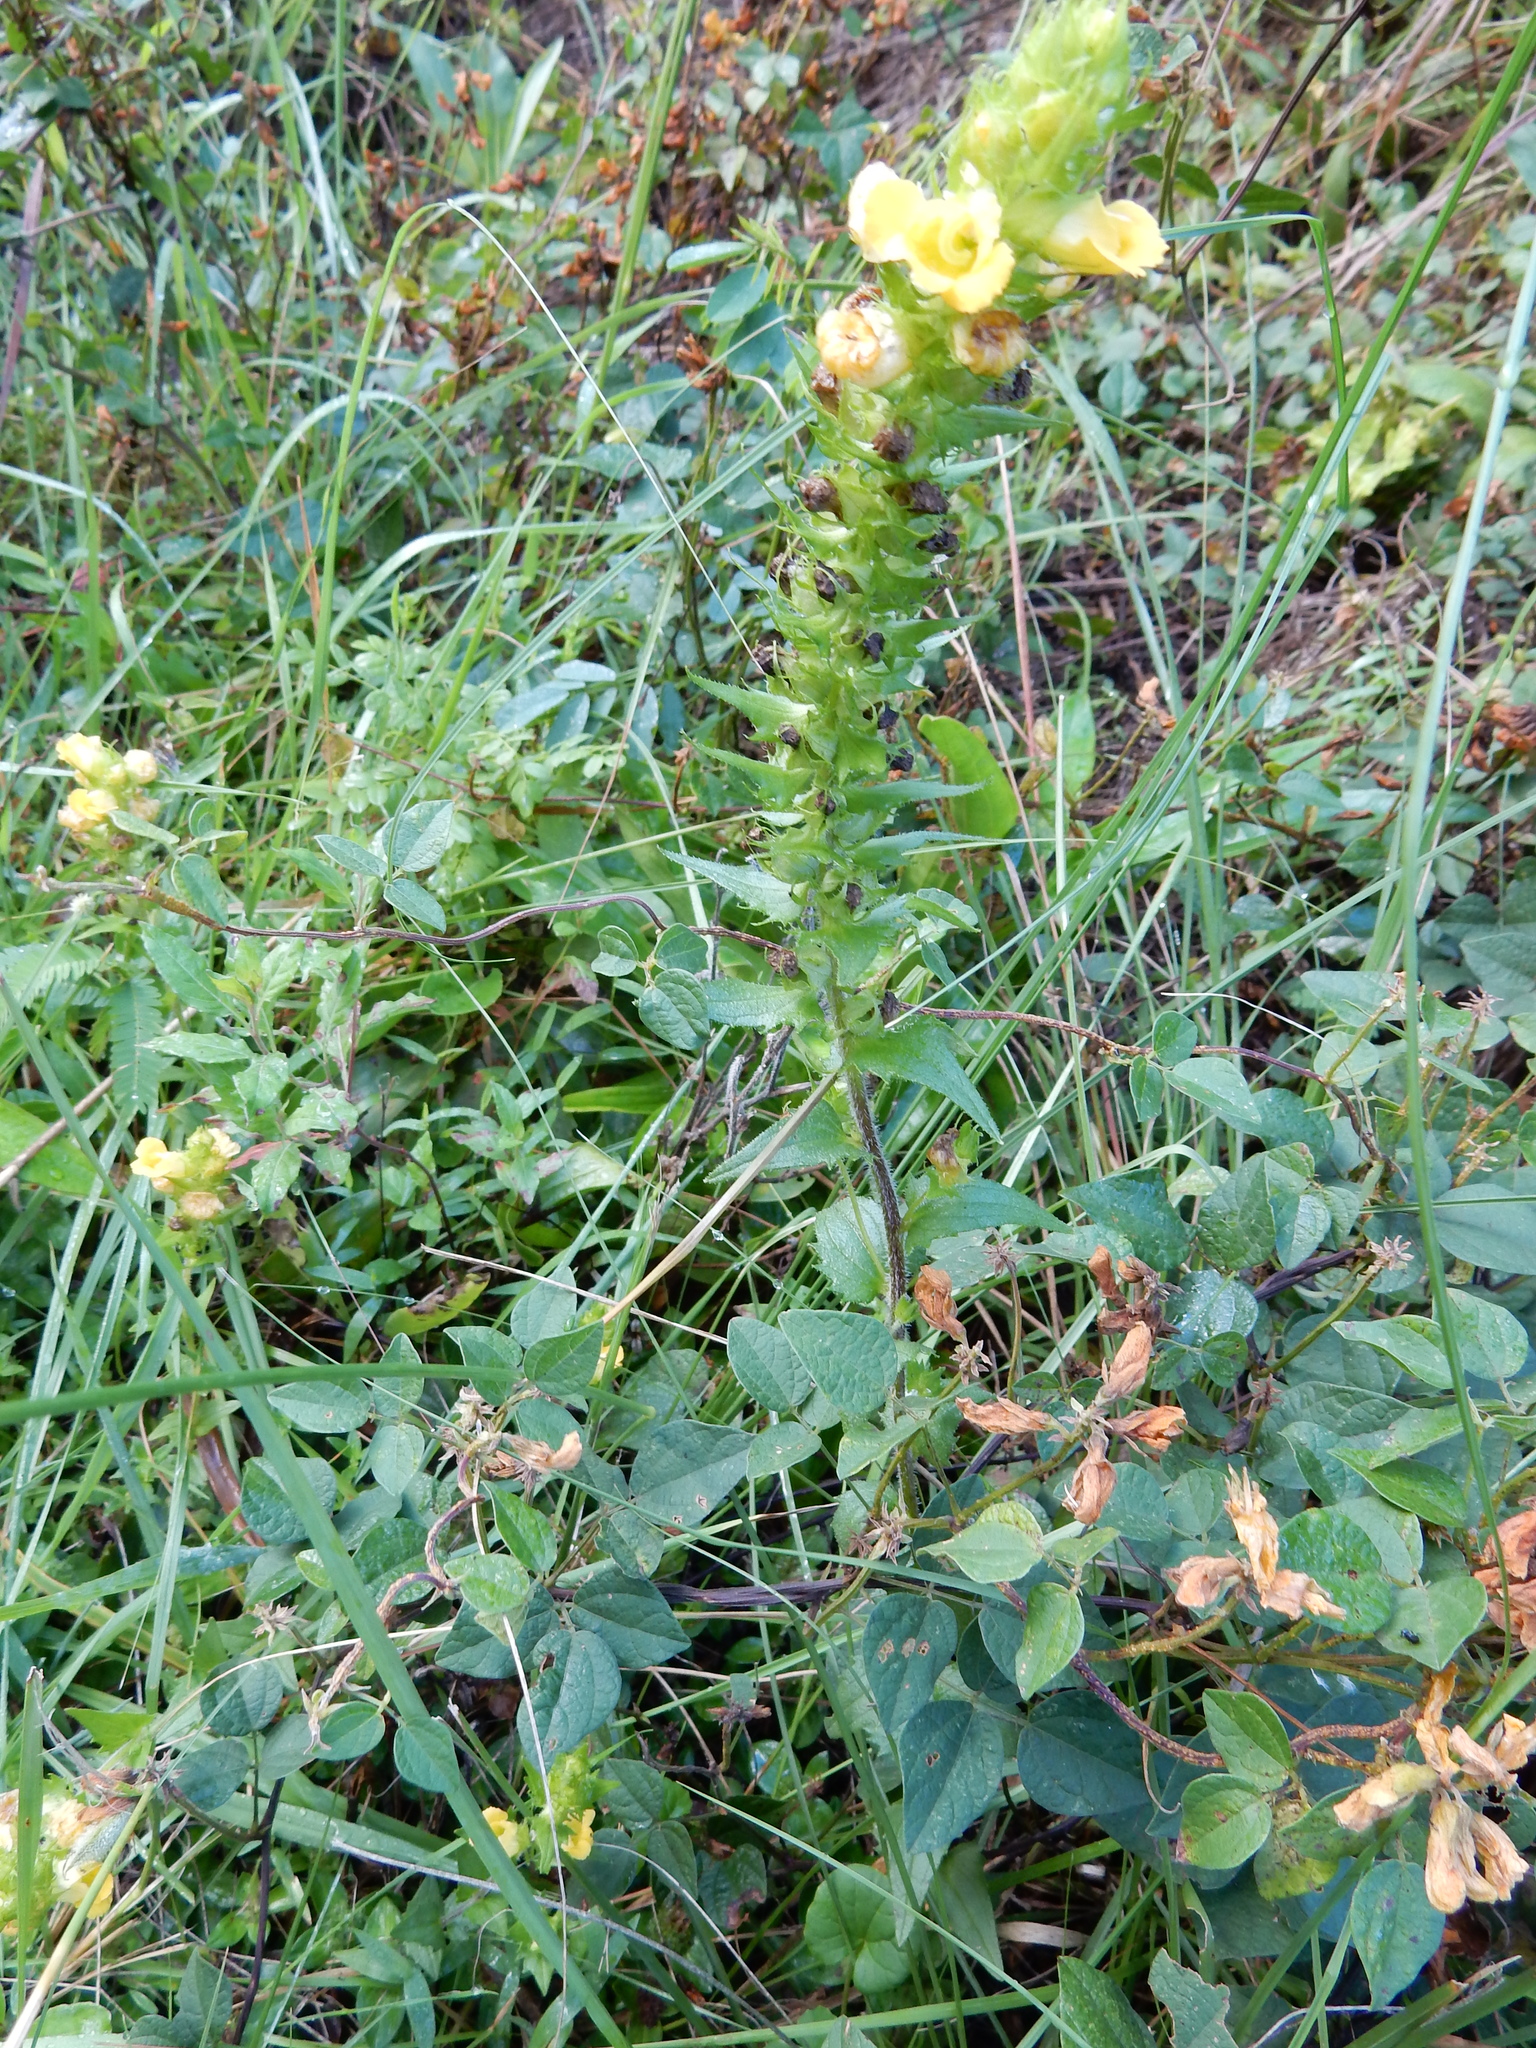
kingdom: Plantae
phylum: Tracheophyta
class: Magnoliopsida
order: Lamiales
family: Orobanchaceae
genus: Alectra
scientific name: Alectra sessiliflora
